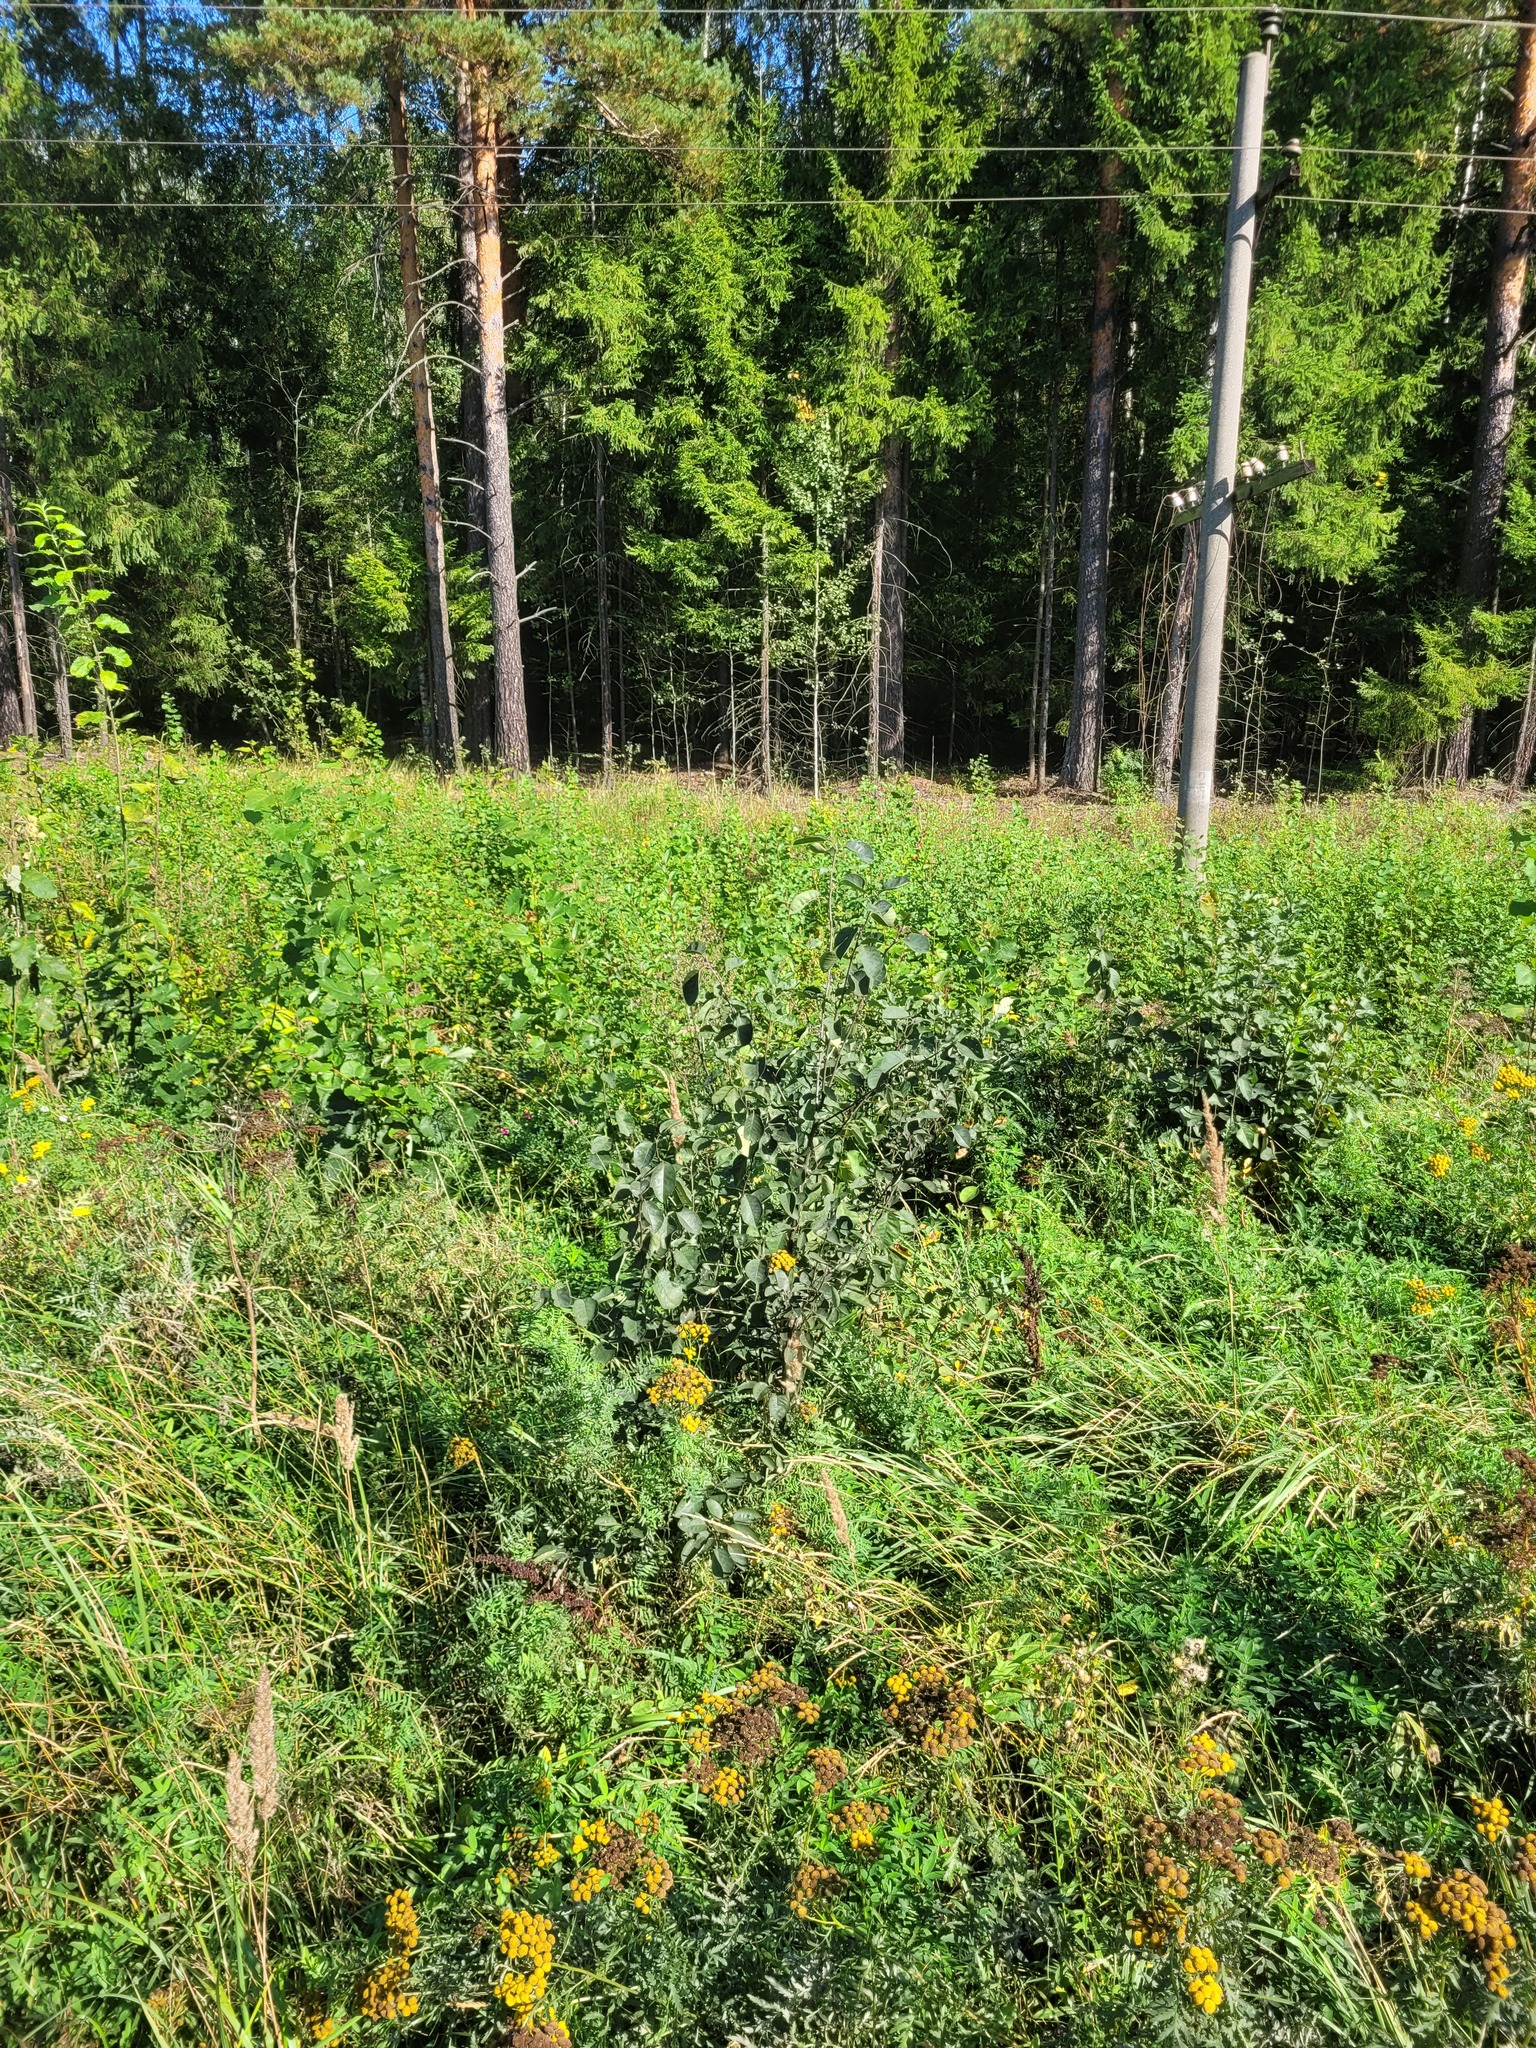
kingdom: Plantae
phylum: Tracheophyta
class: Magnoliopsida
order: Rosales
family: Rosaceae
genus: Amelanchier
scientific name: Amelanchier
